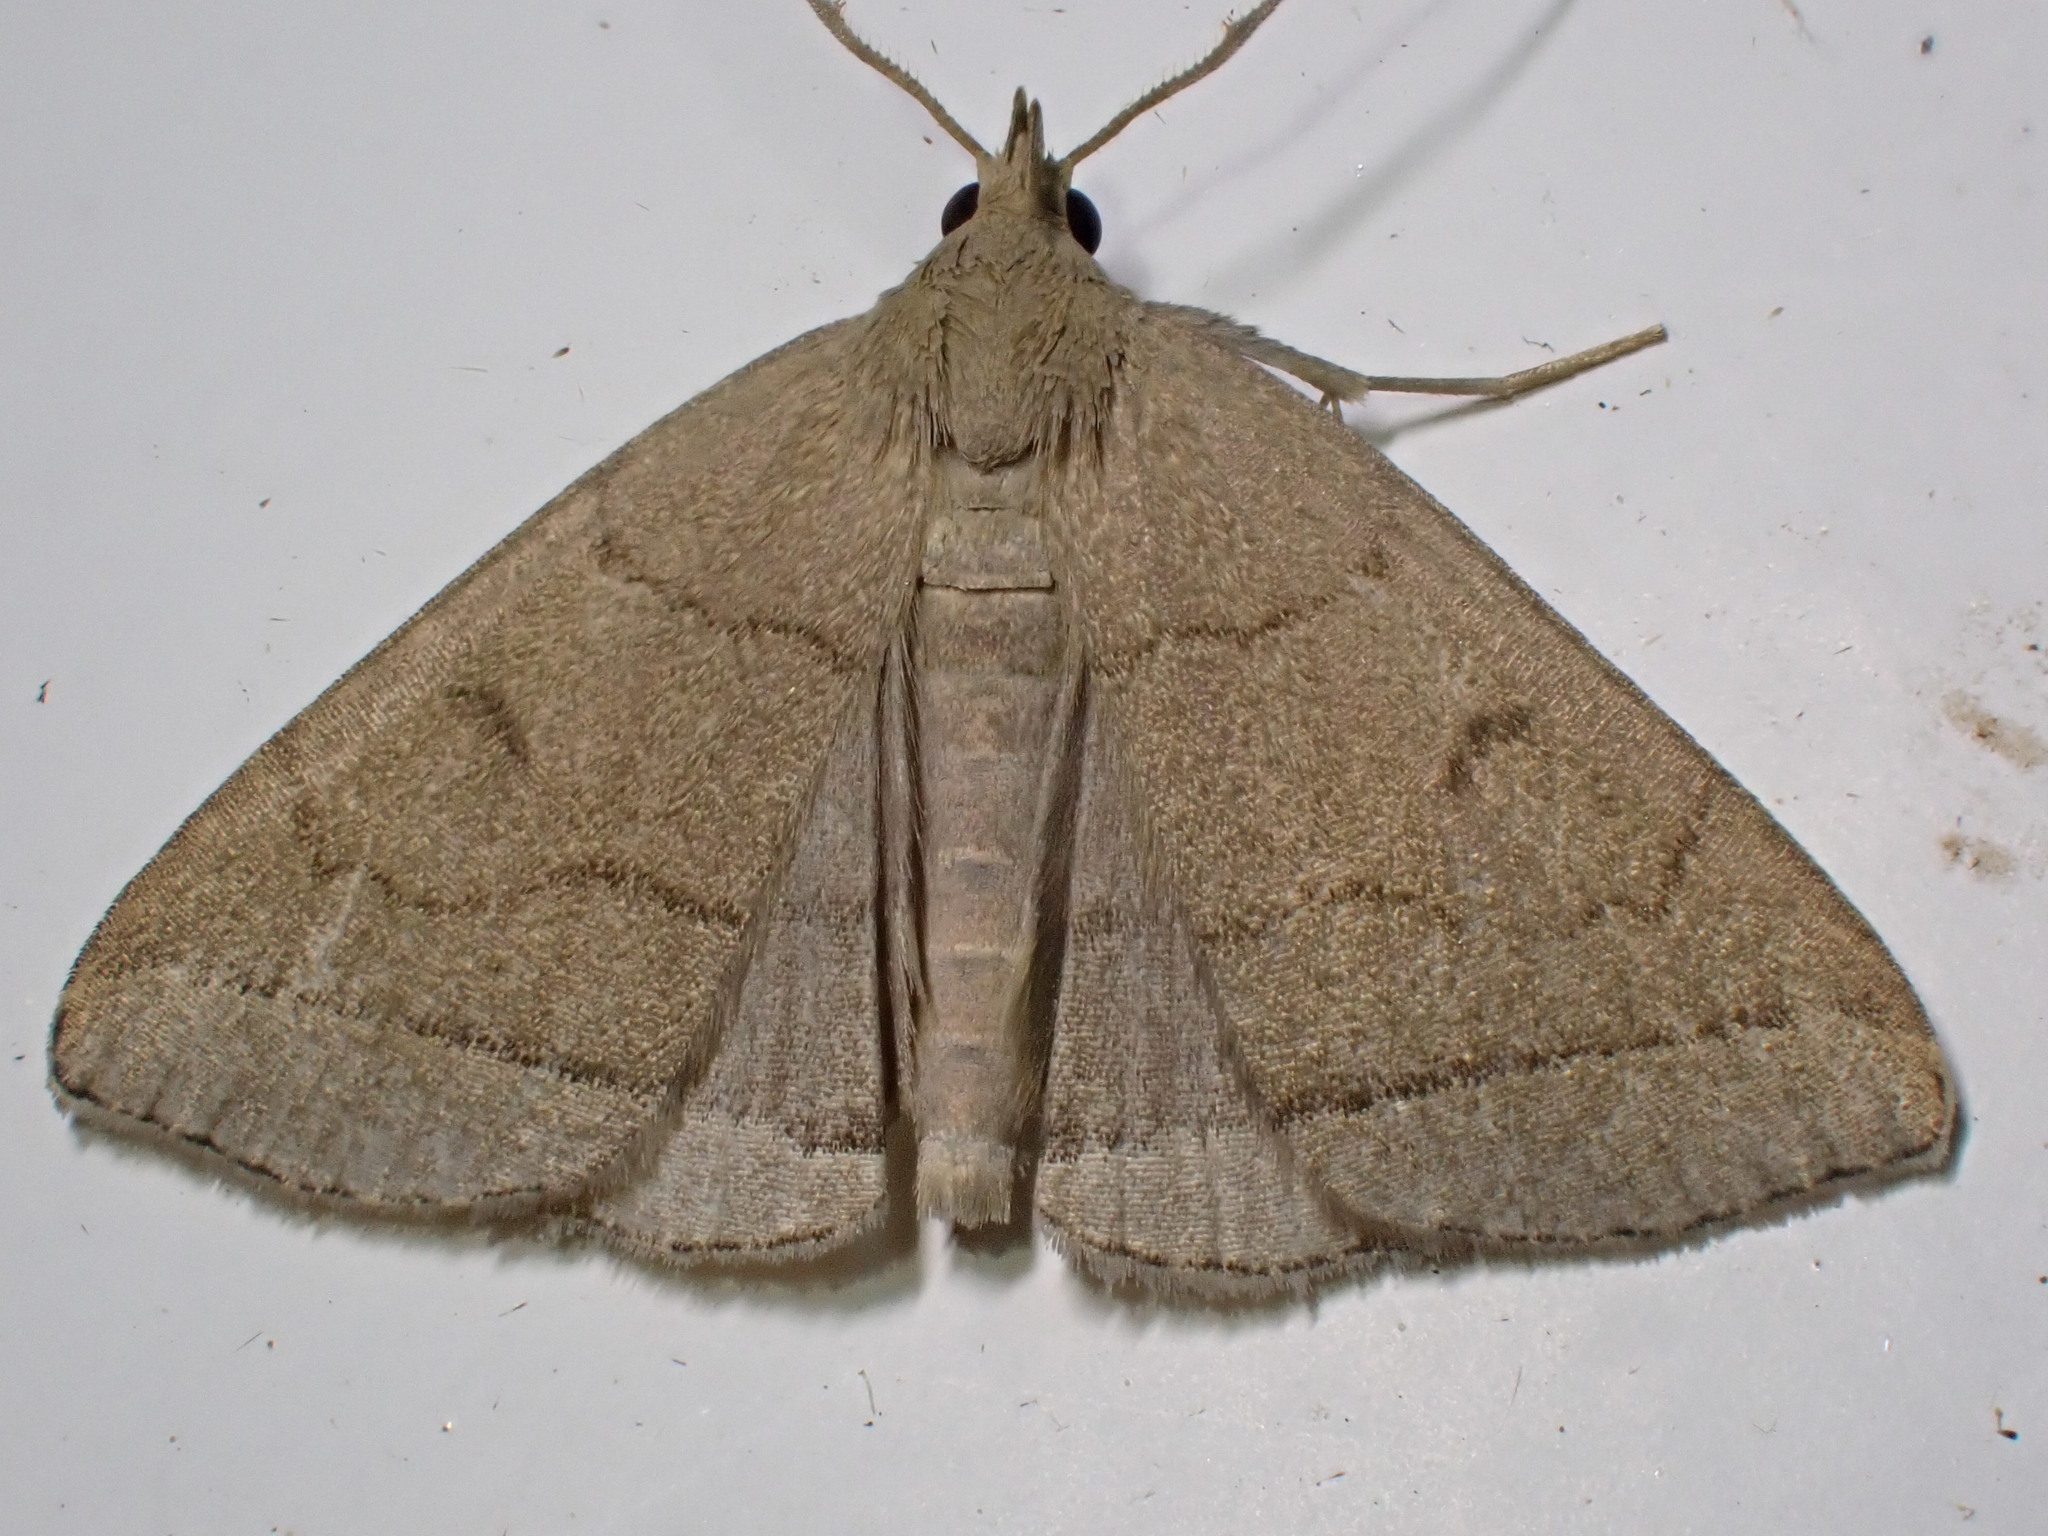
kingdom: Animalia
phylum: Arthropoda
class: Insecta
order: Lepidoptera
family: Erebidae
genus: Herminia
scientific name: Herminia tarsipennalis
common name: Fan-foot
